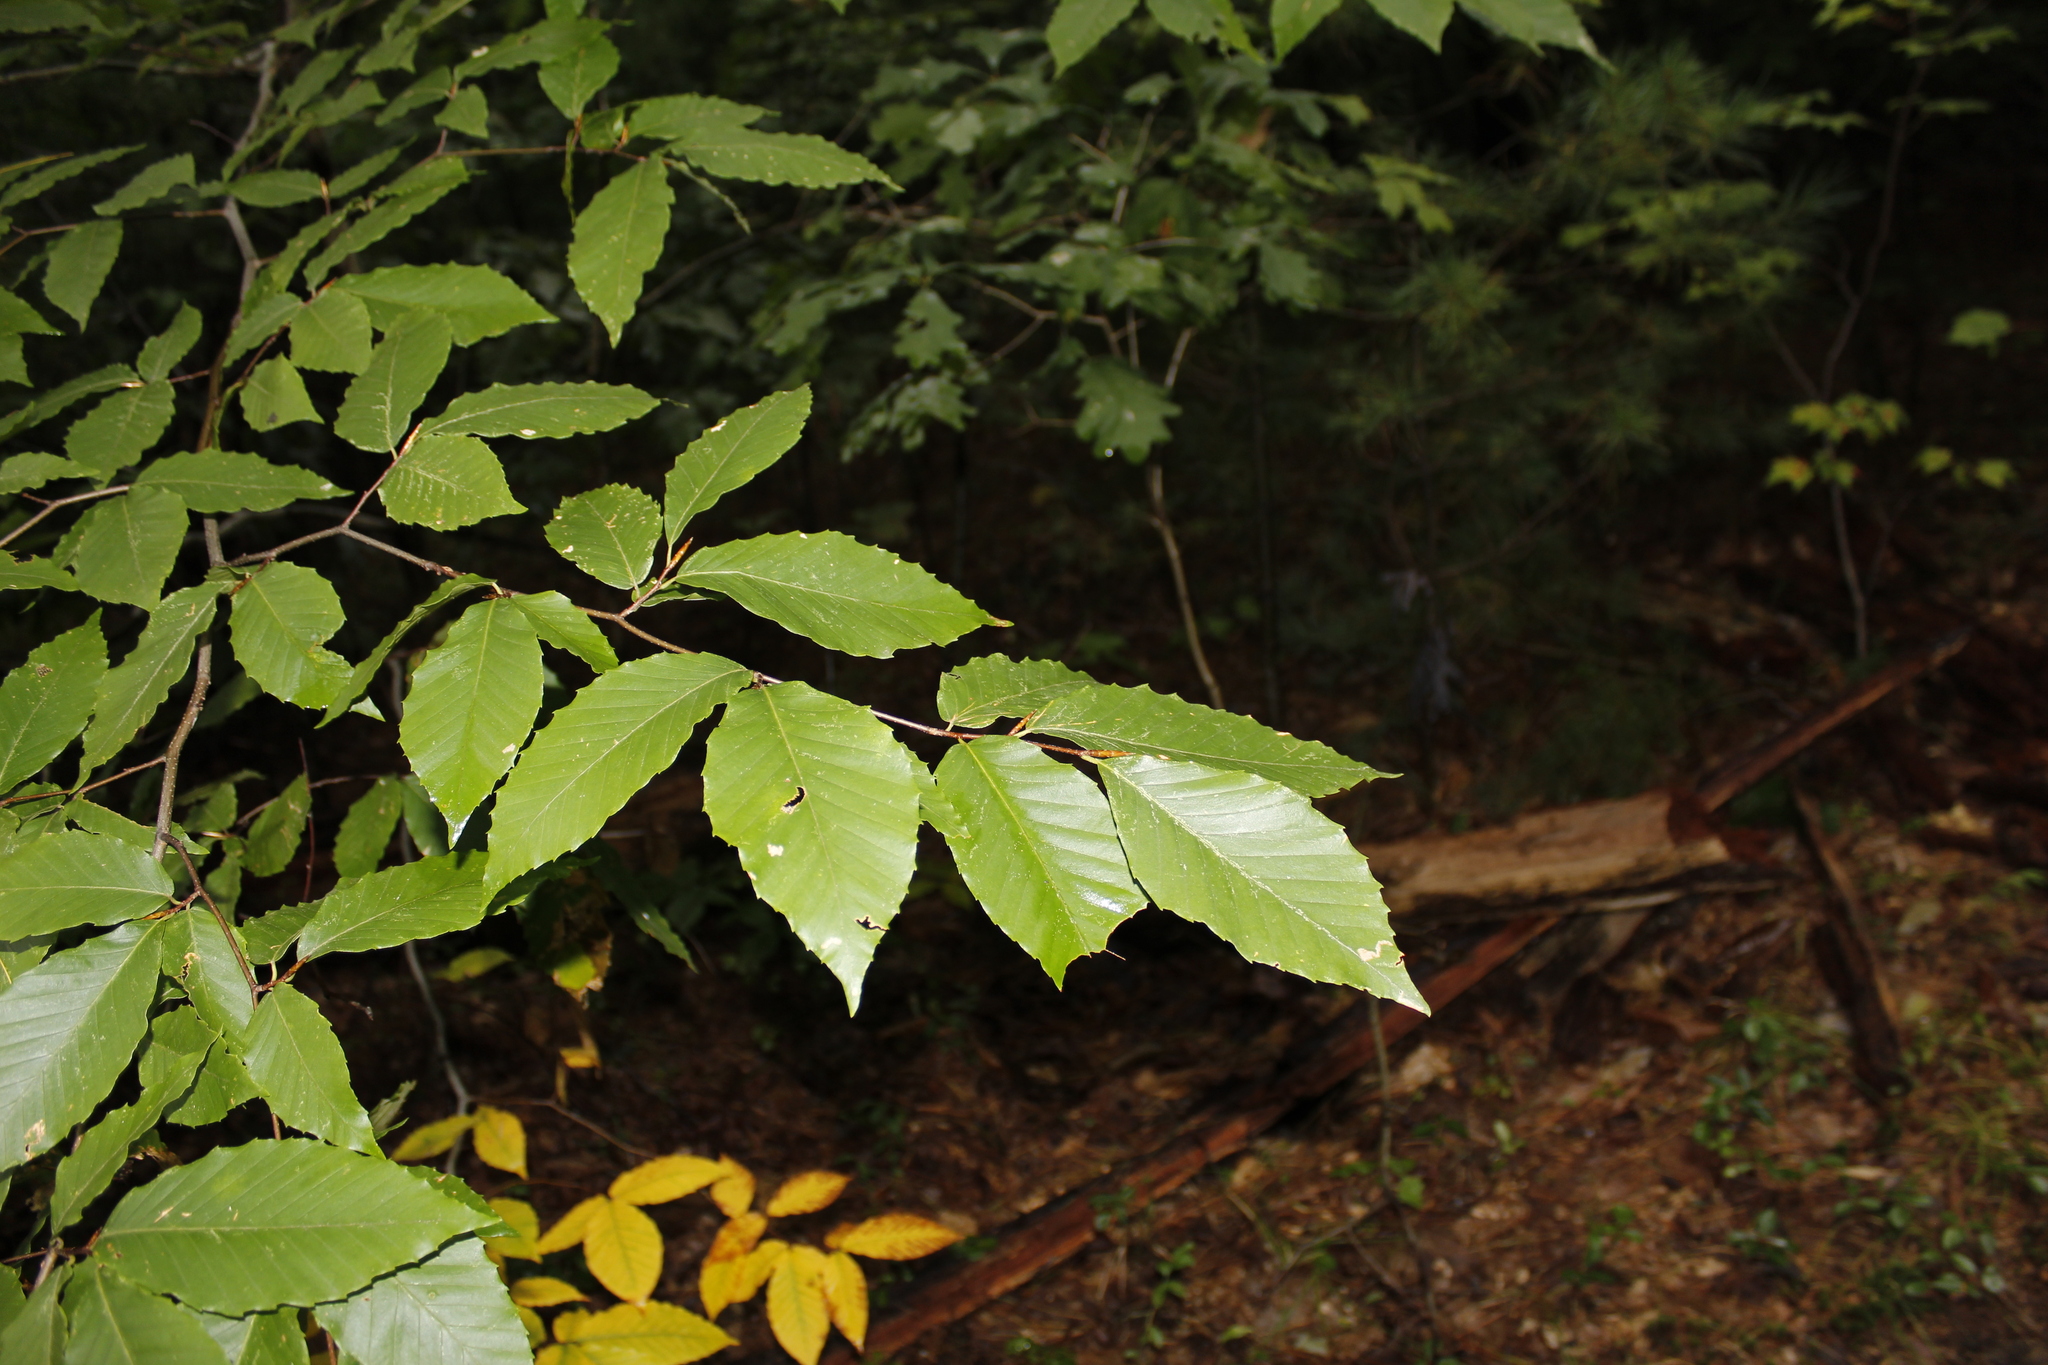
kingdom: Plantae
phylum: Tracheophyta
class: Magnoliopsida
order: Fagales
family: Fagaceae
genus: Fagus
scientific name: Fagus grandifolia
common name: American beech
